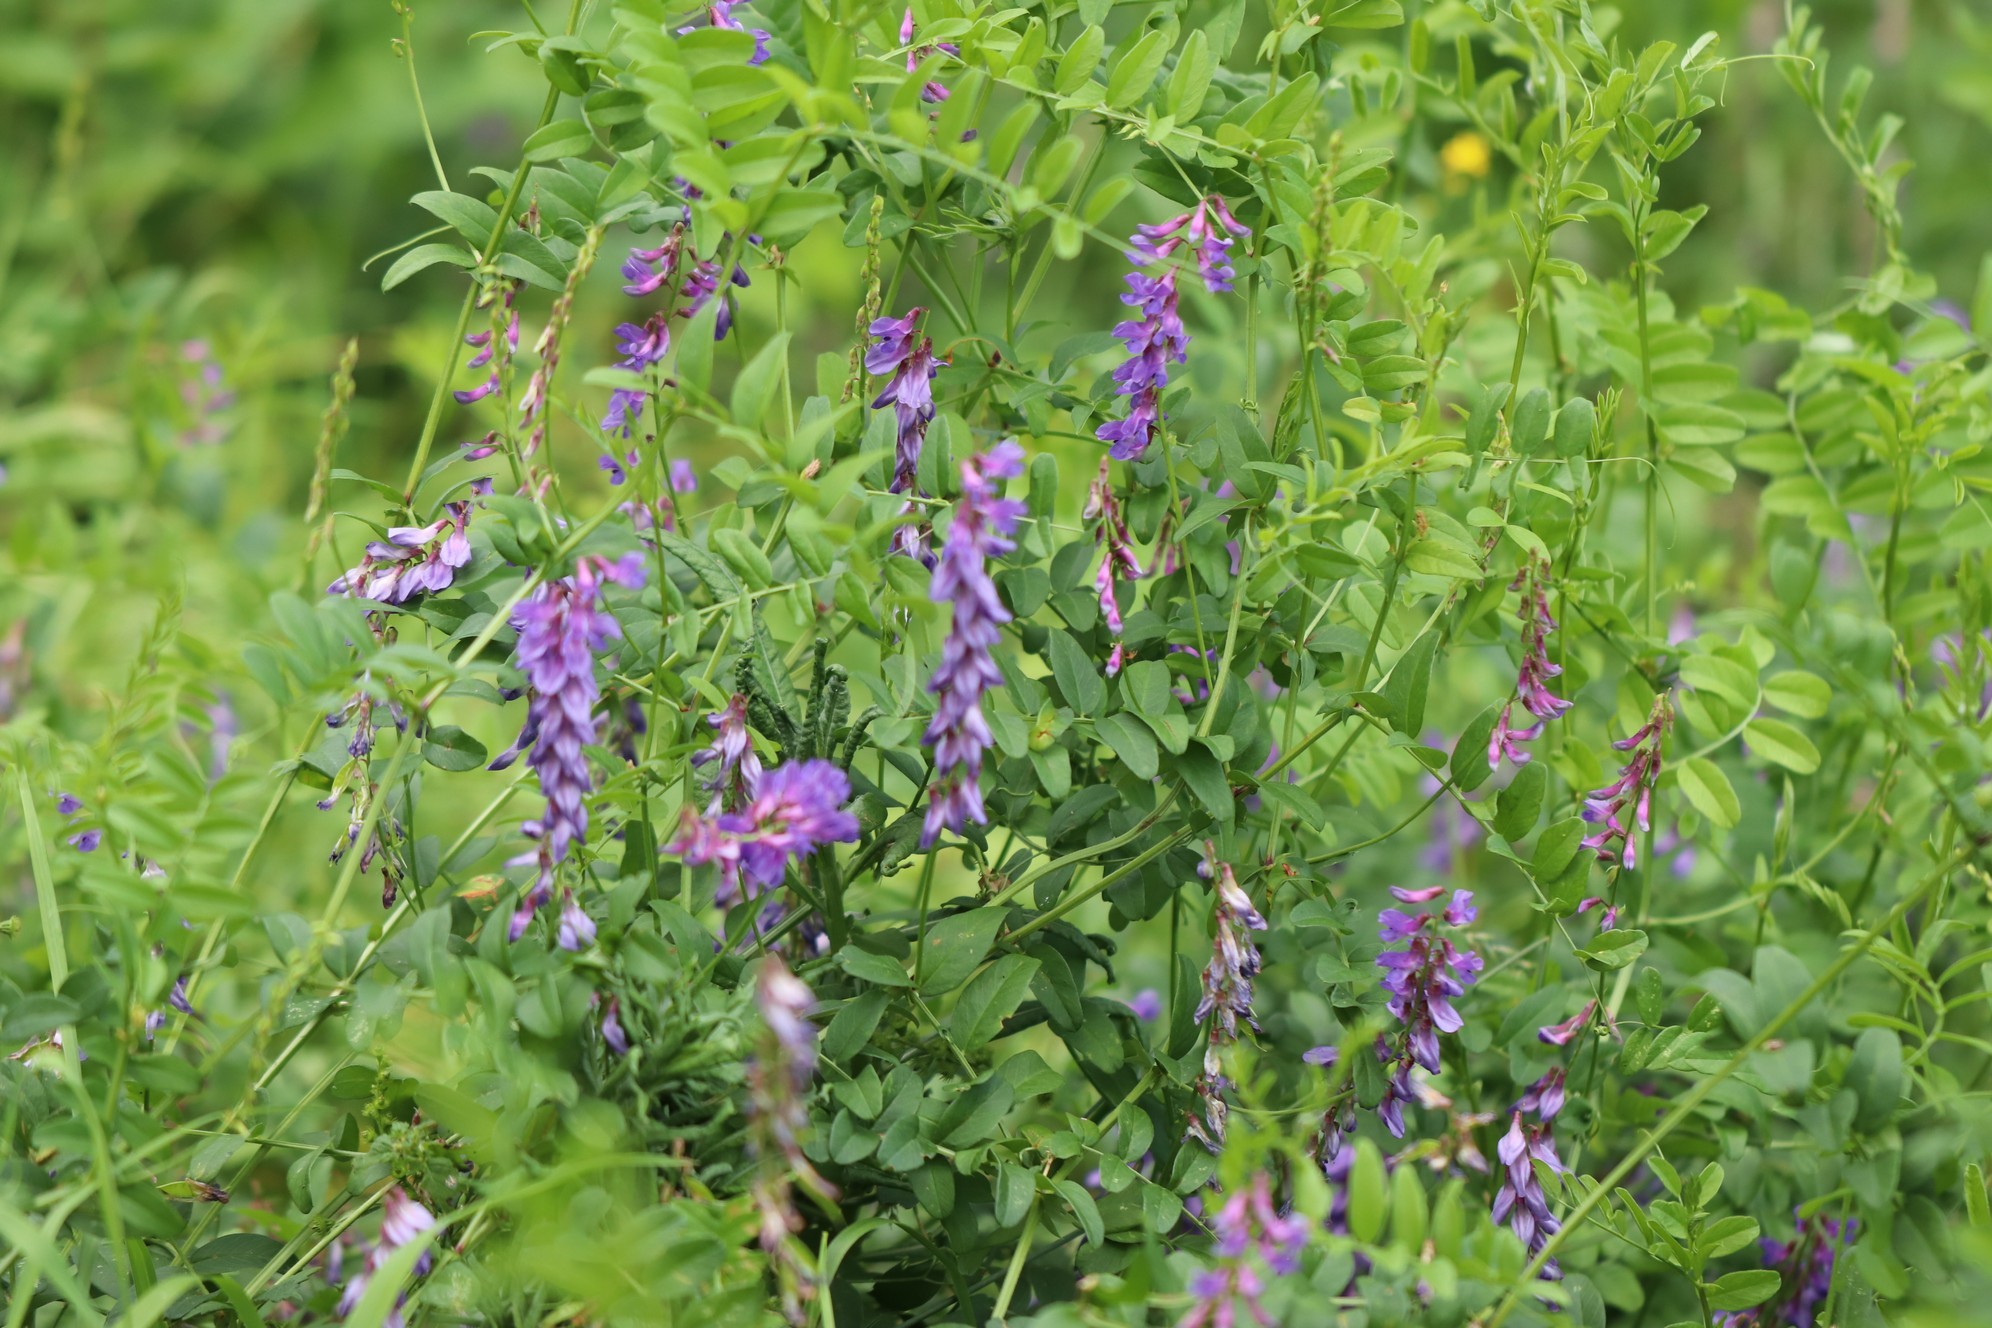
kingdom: Plantae
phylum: Tracheophyta
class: Magnoliopsida
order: Fabales
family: Fabaceae
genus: Vicia
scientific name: Vicia amoena
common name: Cheder ebs
